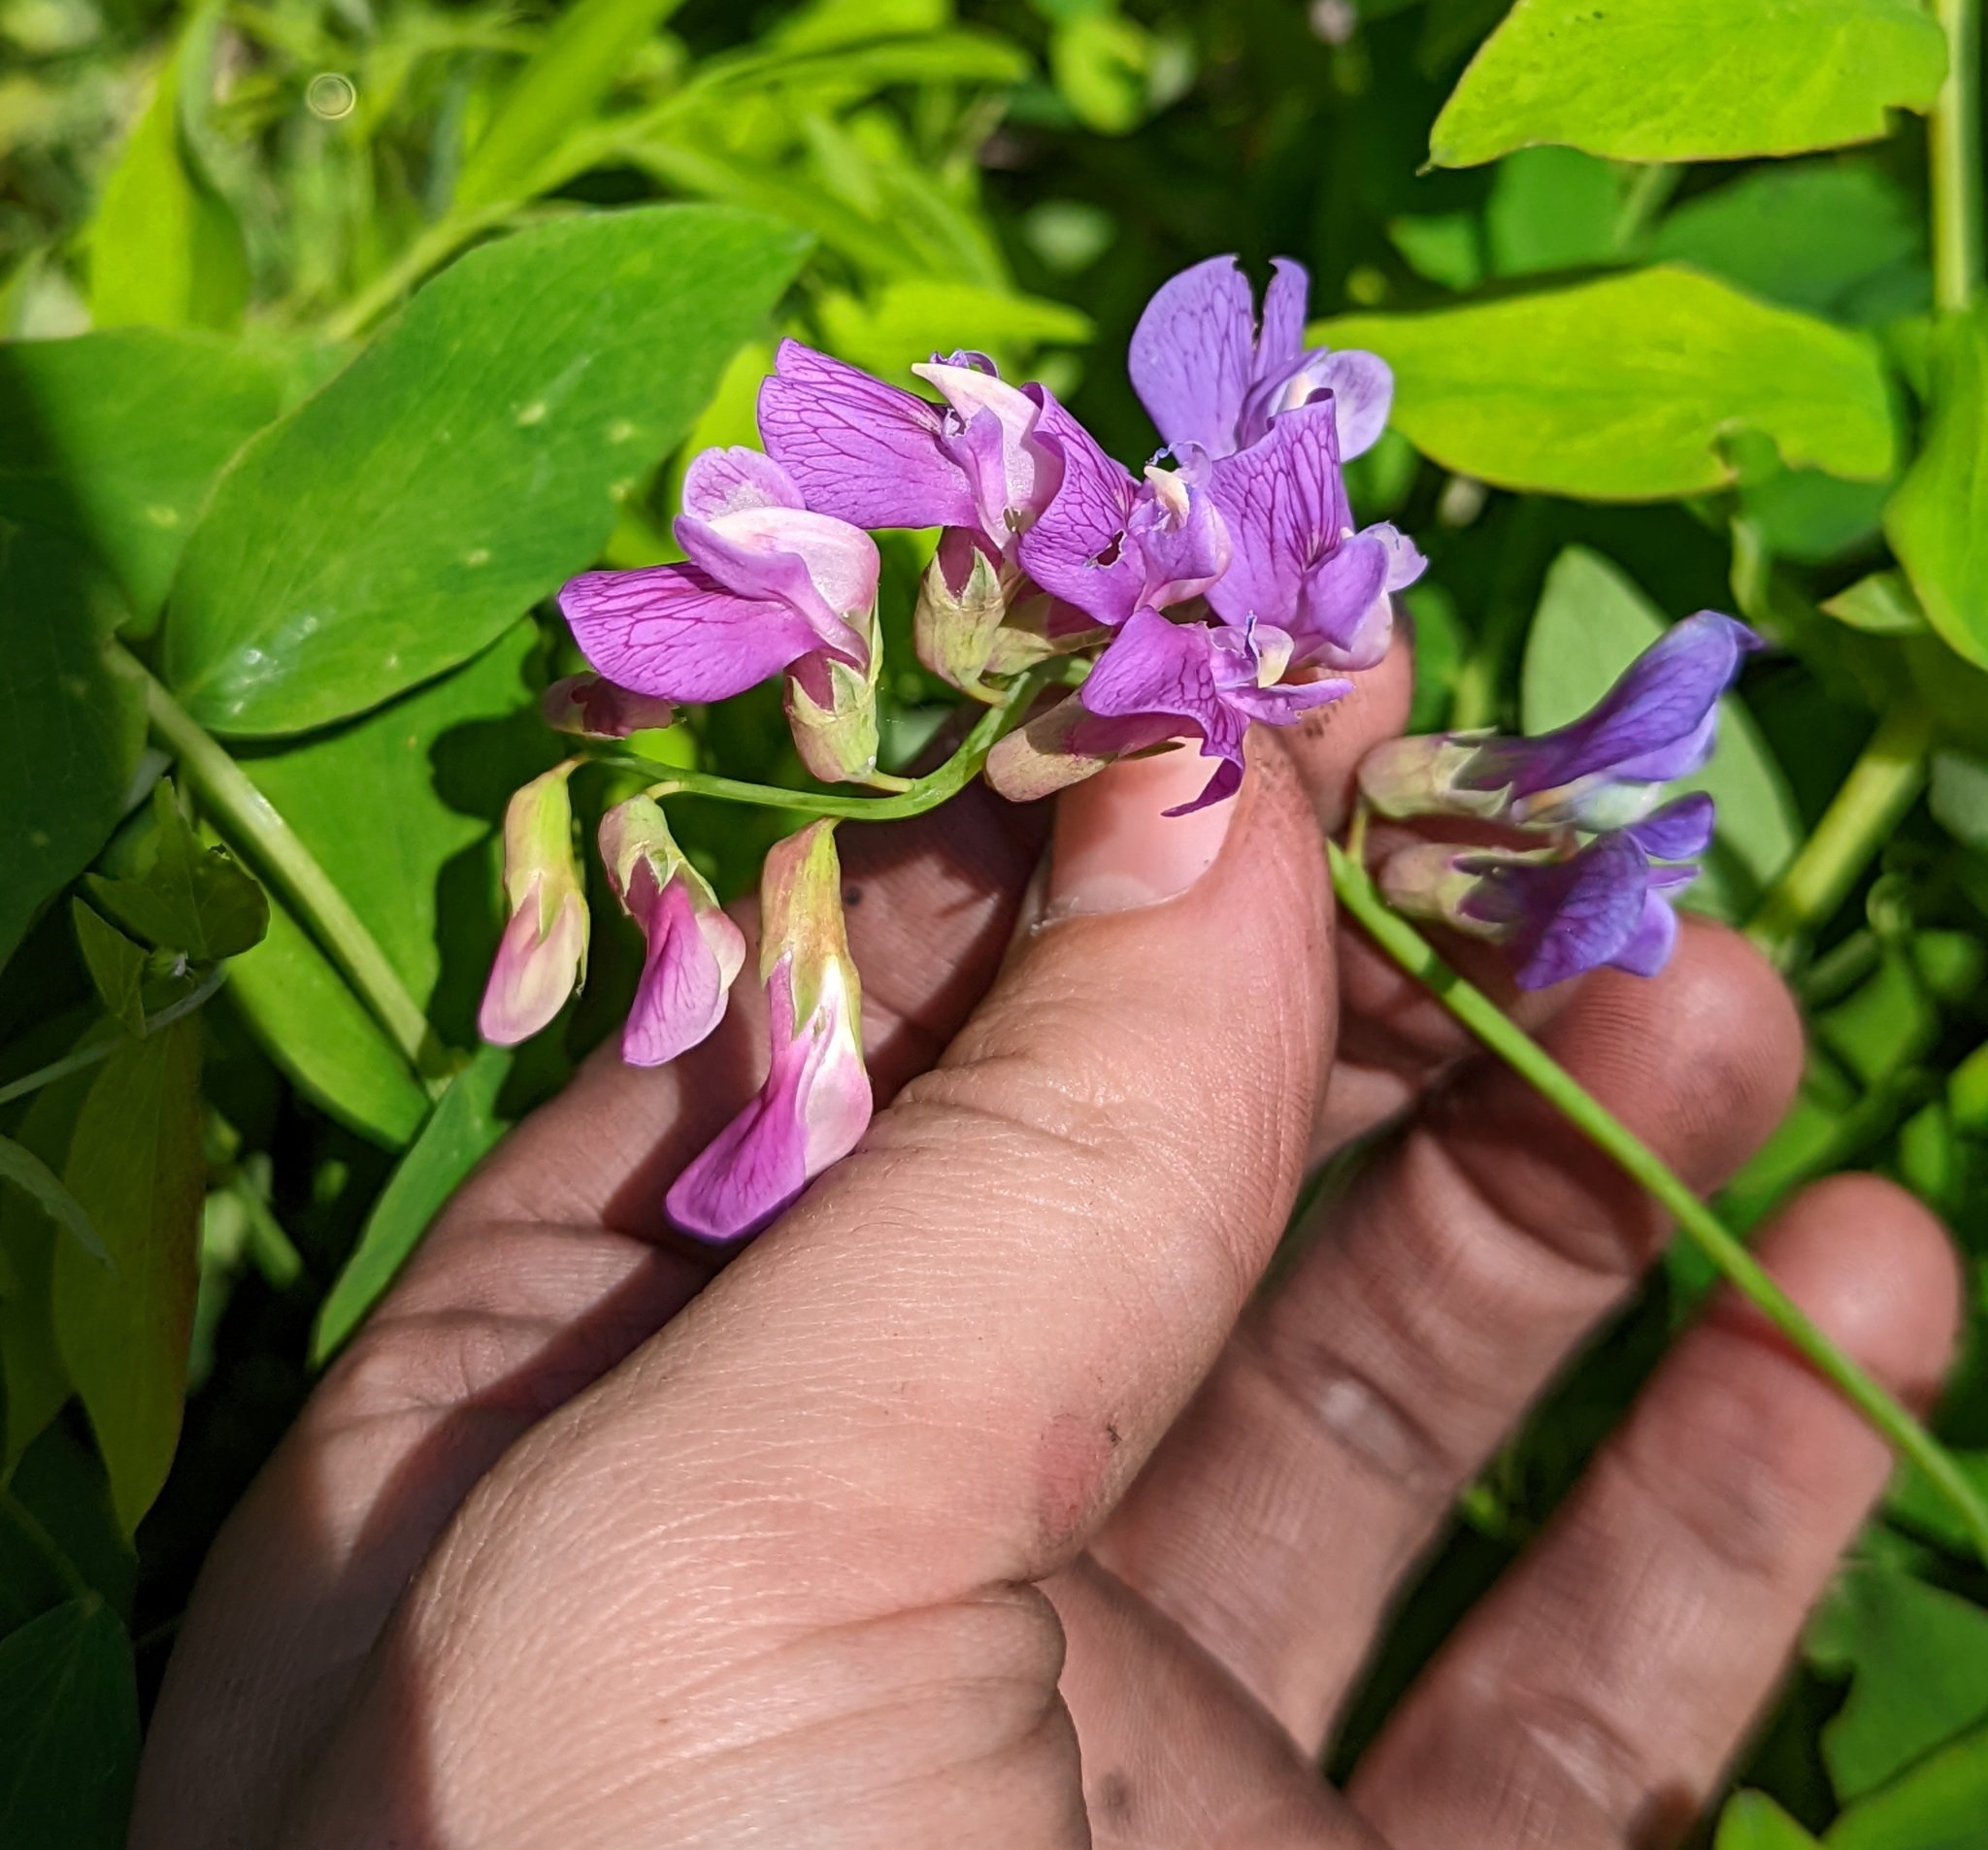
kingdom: Plantae
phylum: Tracheophyta
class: Magnoliopsida
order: Fabales
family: Fabaceae
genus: Lathyrus
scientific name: Lathyrus polyphyllus
